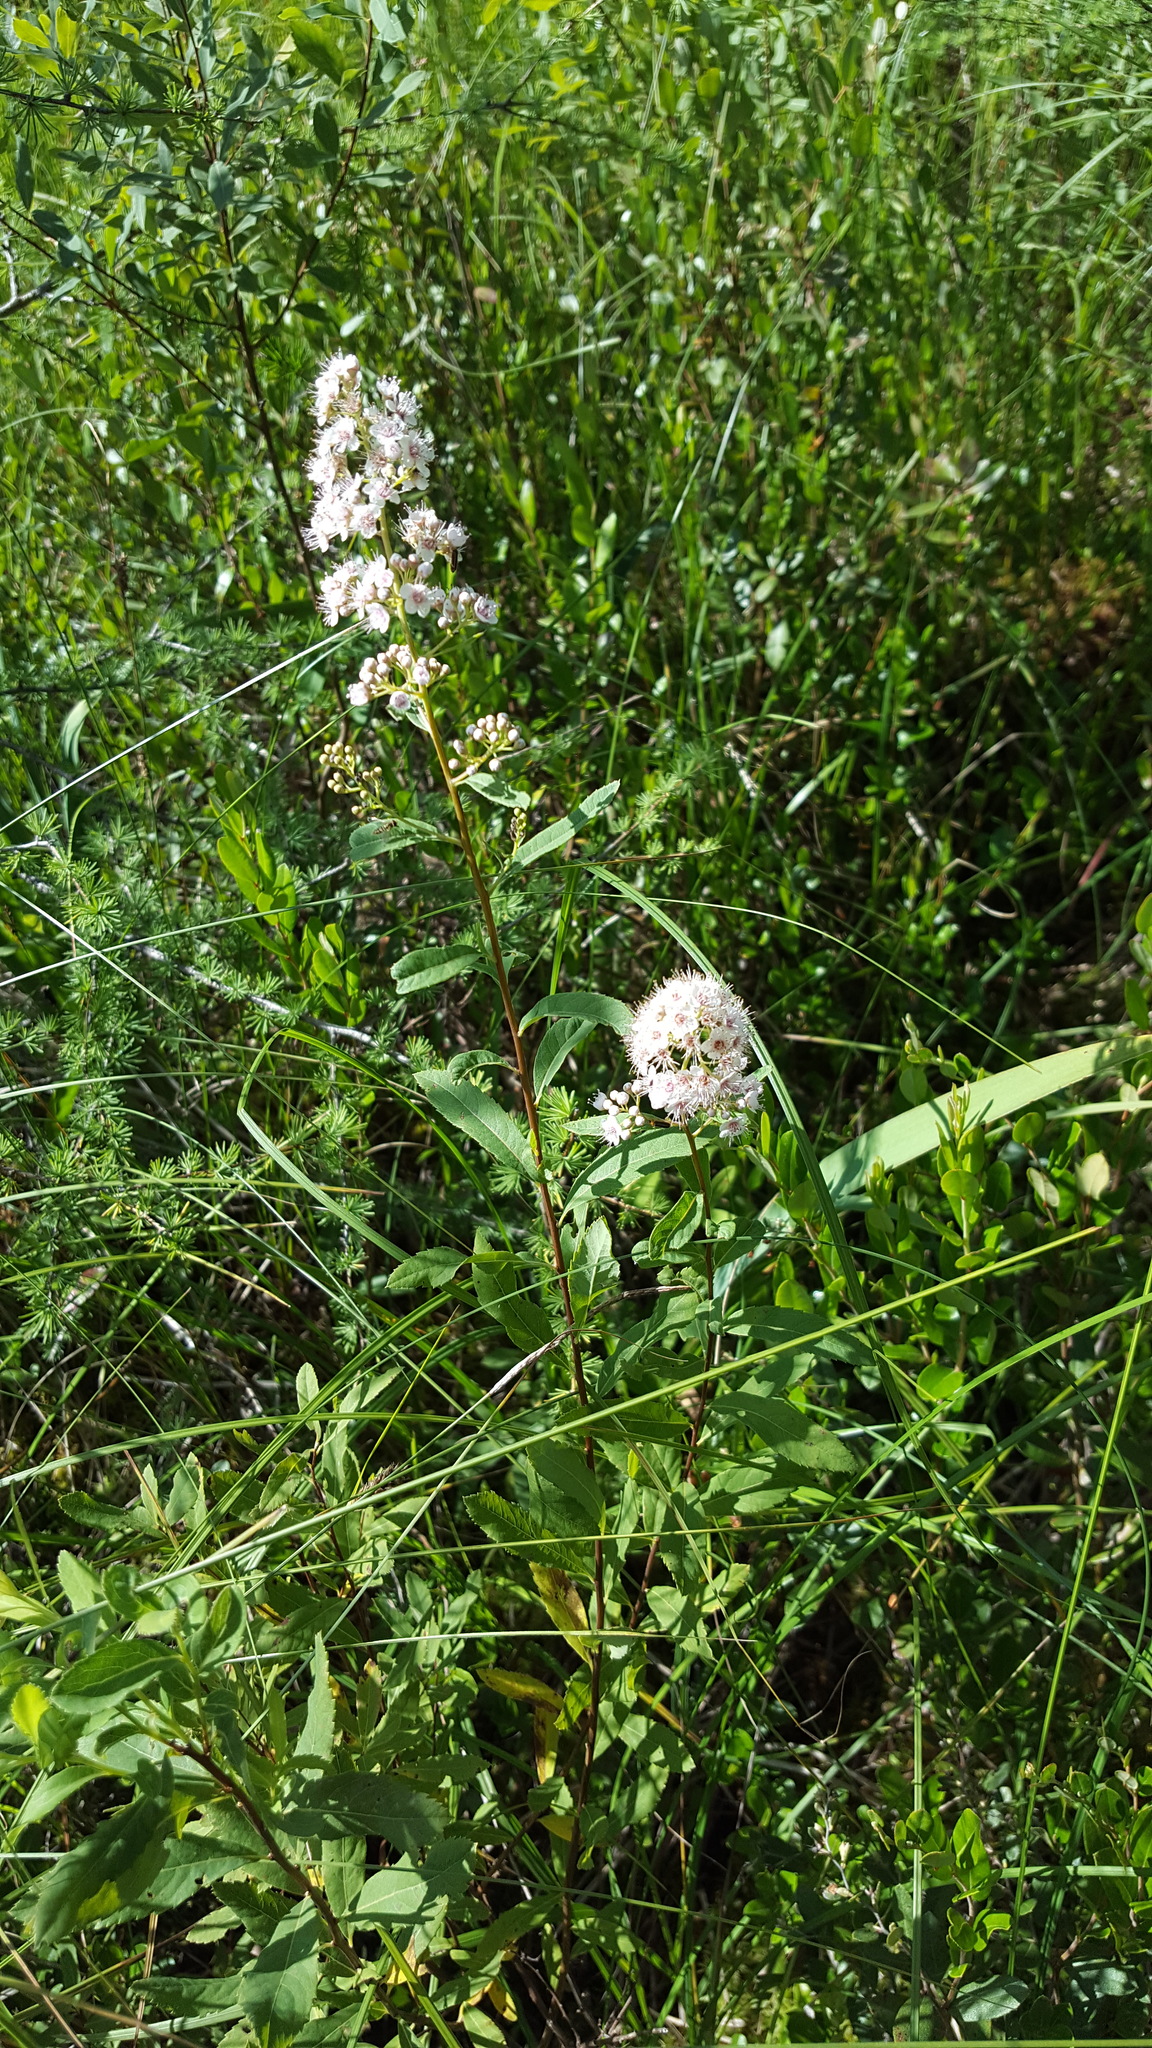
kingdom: Plantae
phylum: Tracheophyta
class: Magnoliopsida
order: Rosales
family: Rosaceae
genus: Spiraea
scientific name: Spiraea alba
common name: Pale bridewort
